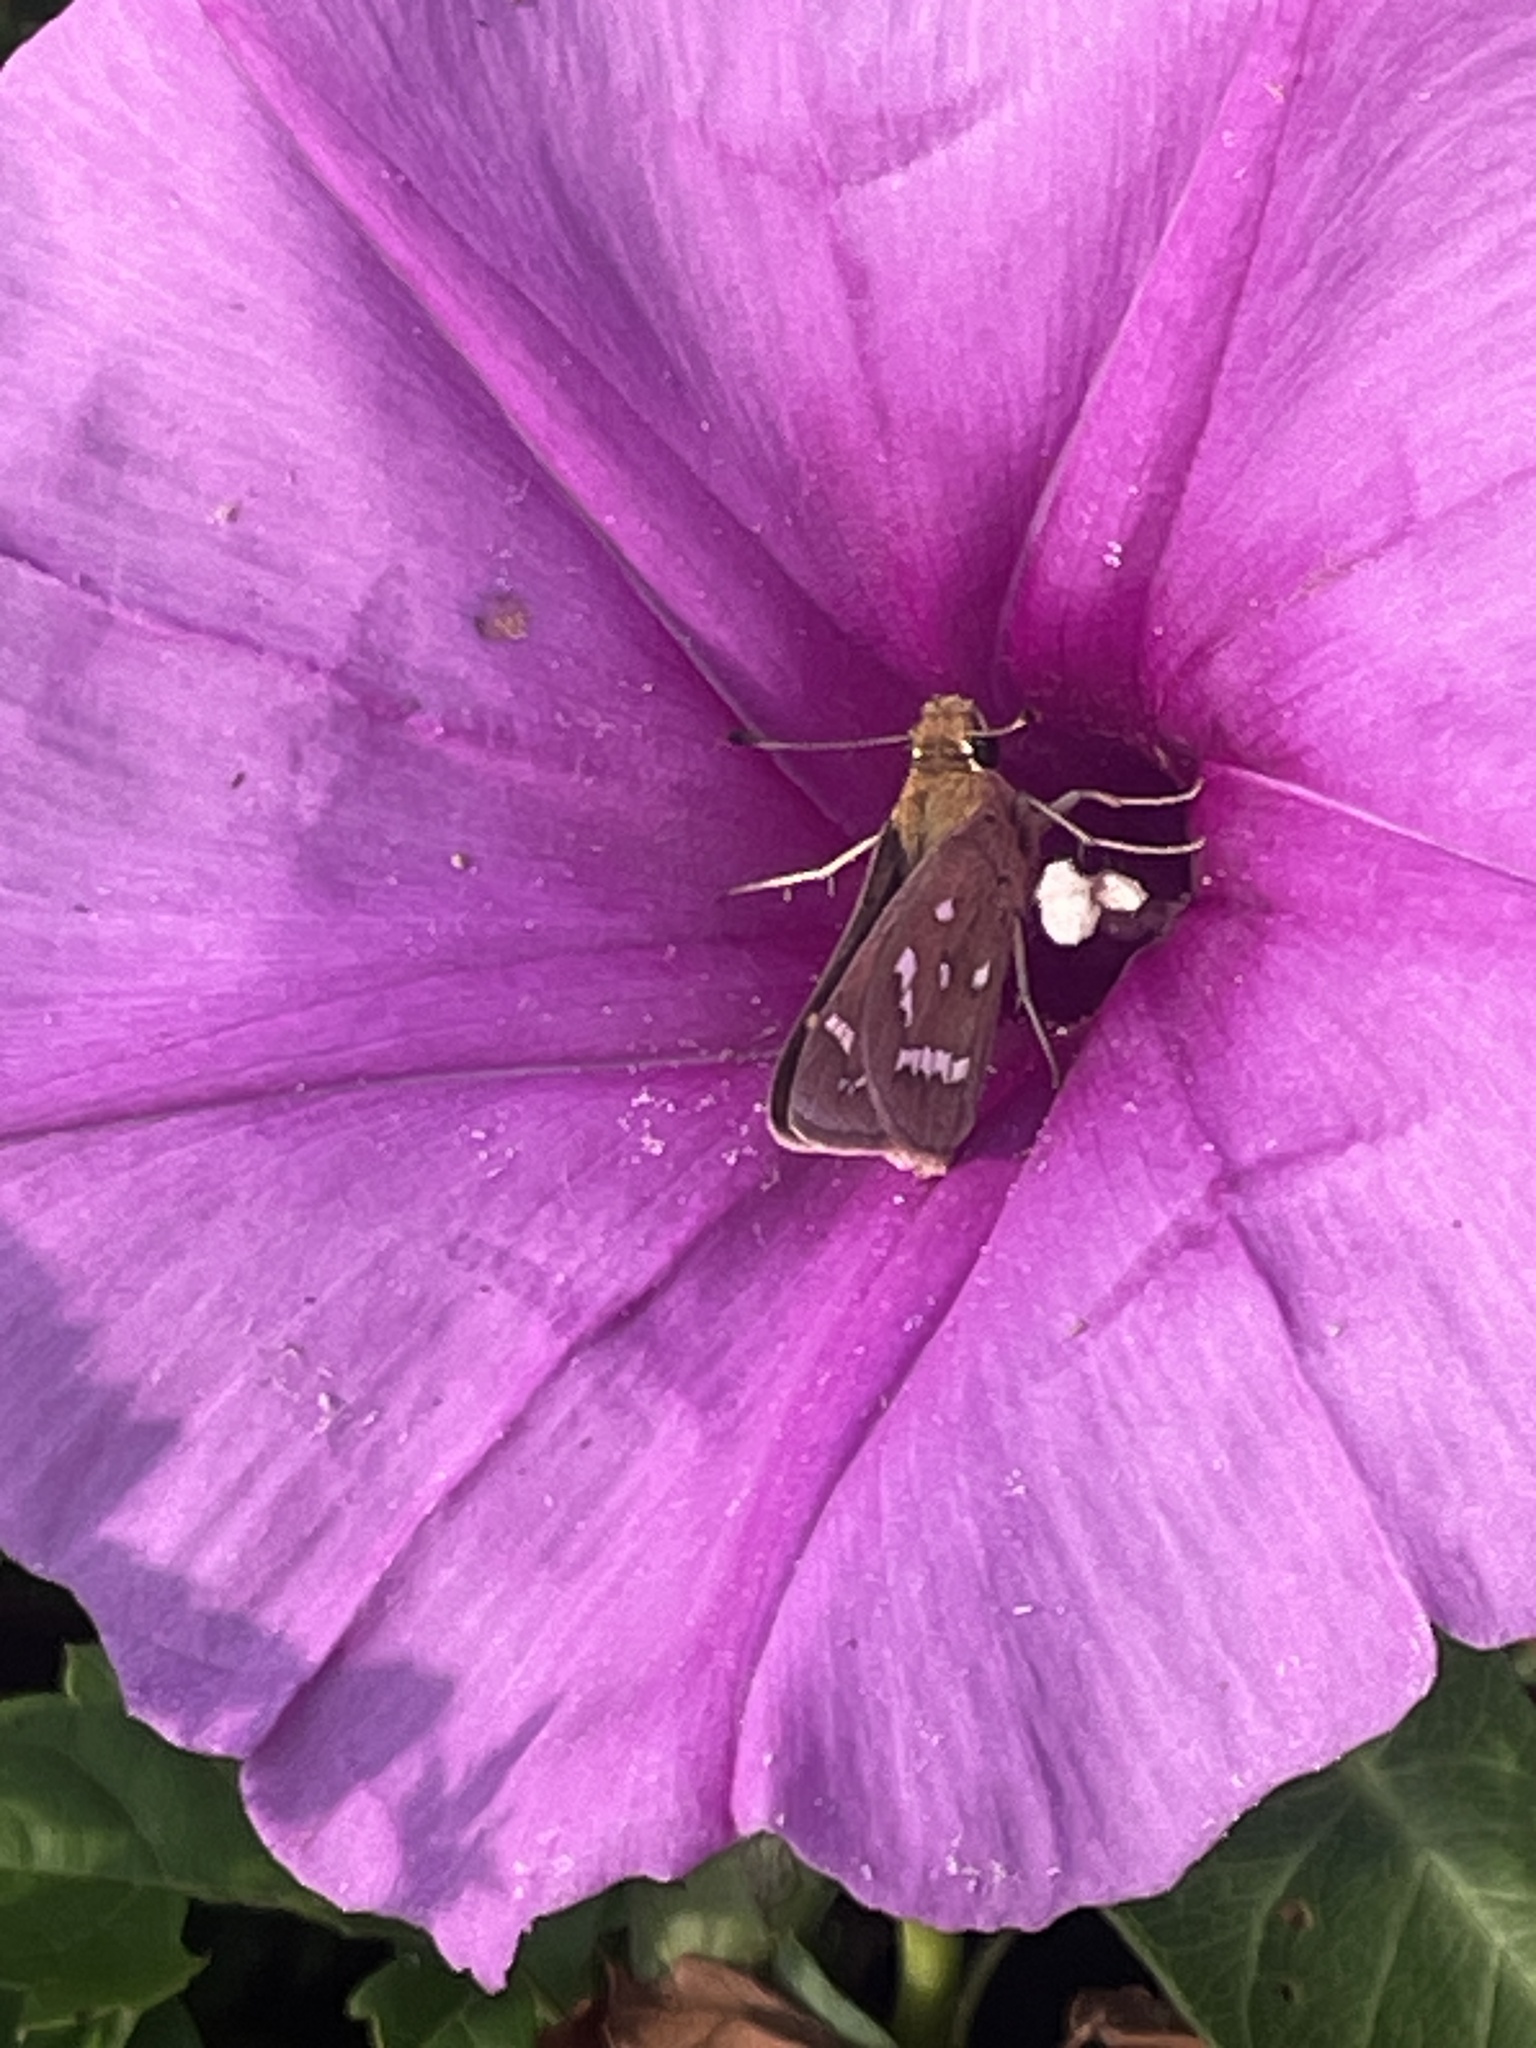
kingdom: Animalia
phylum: Arthropoda
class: Insecta
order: Lepidoptera
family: Hesperiidae
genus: Atrytonopsis
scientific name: Atrytonopsis quinteri
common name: Crystal skipper
